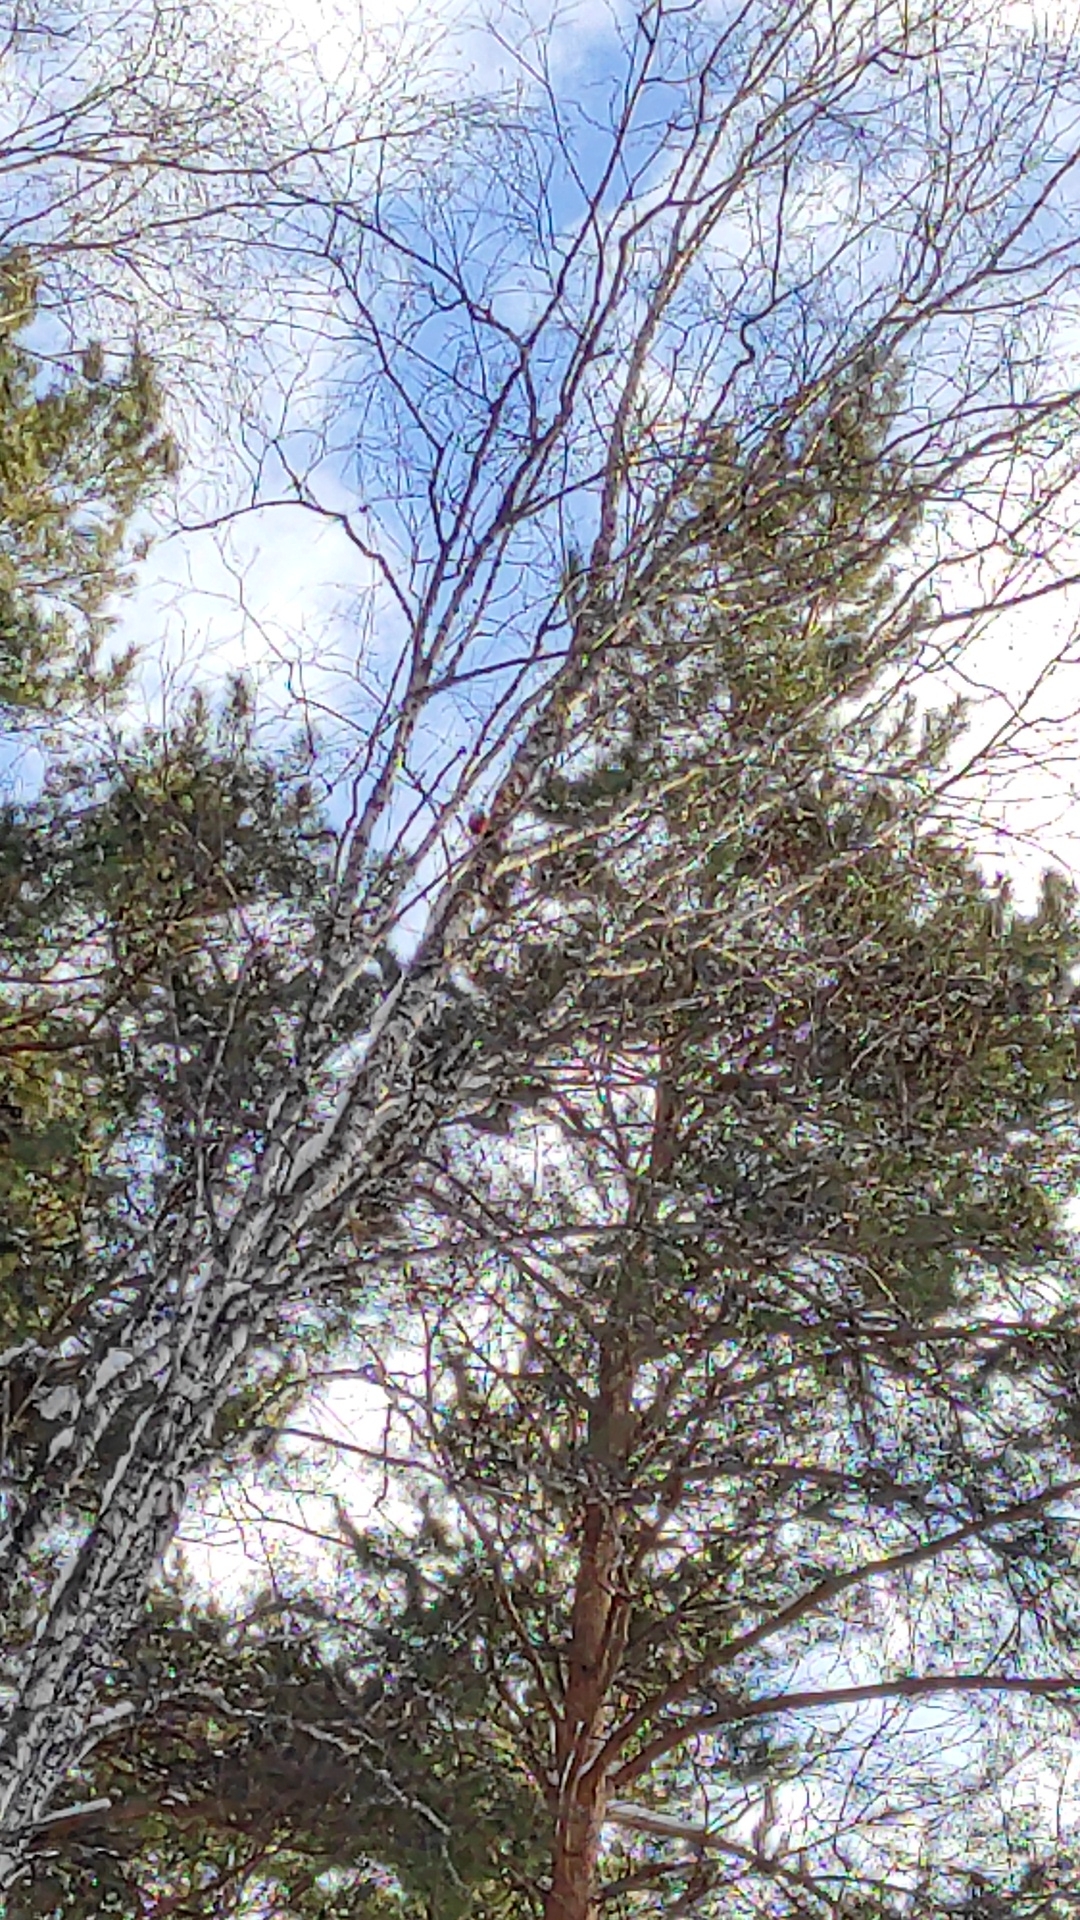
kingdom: Animalia
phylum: Chordata
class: Aves
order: Piciformes
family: Picidae
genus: Dendrocopos
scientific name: Dendrocopos major
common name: Great spotted woodpecker
